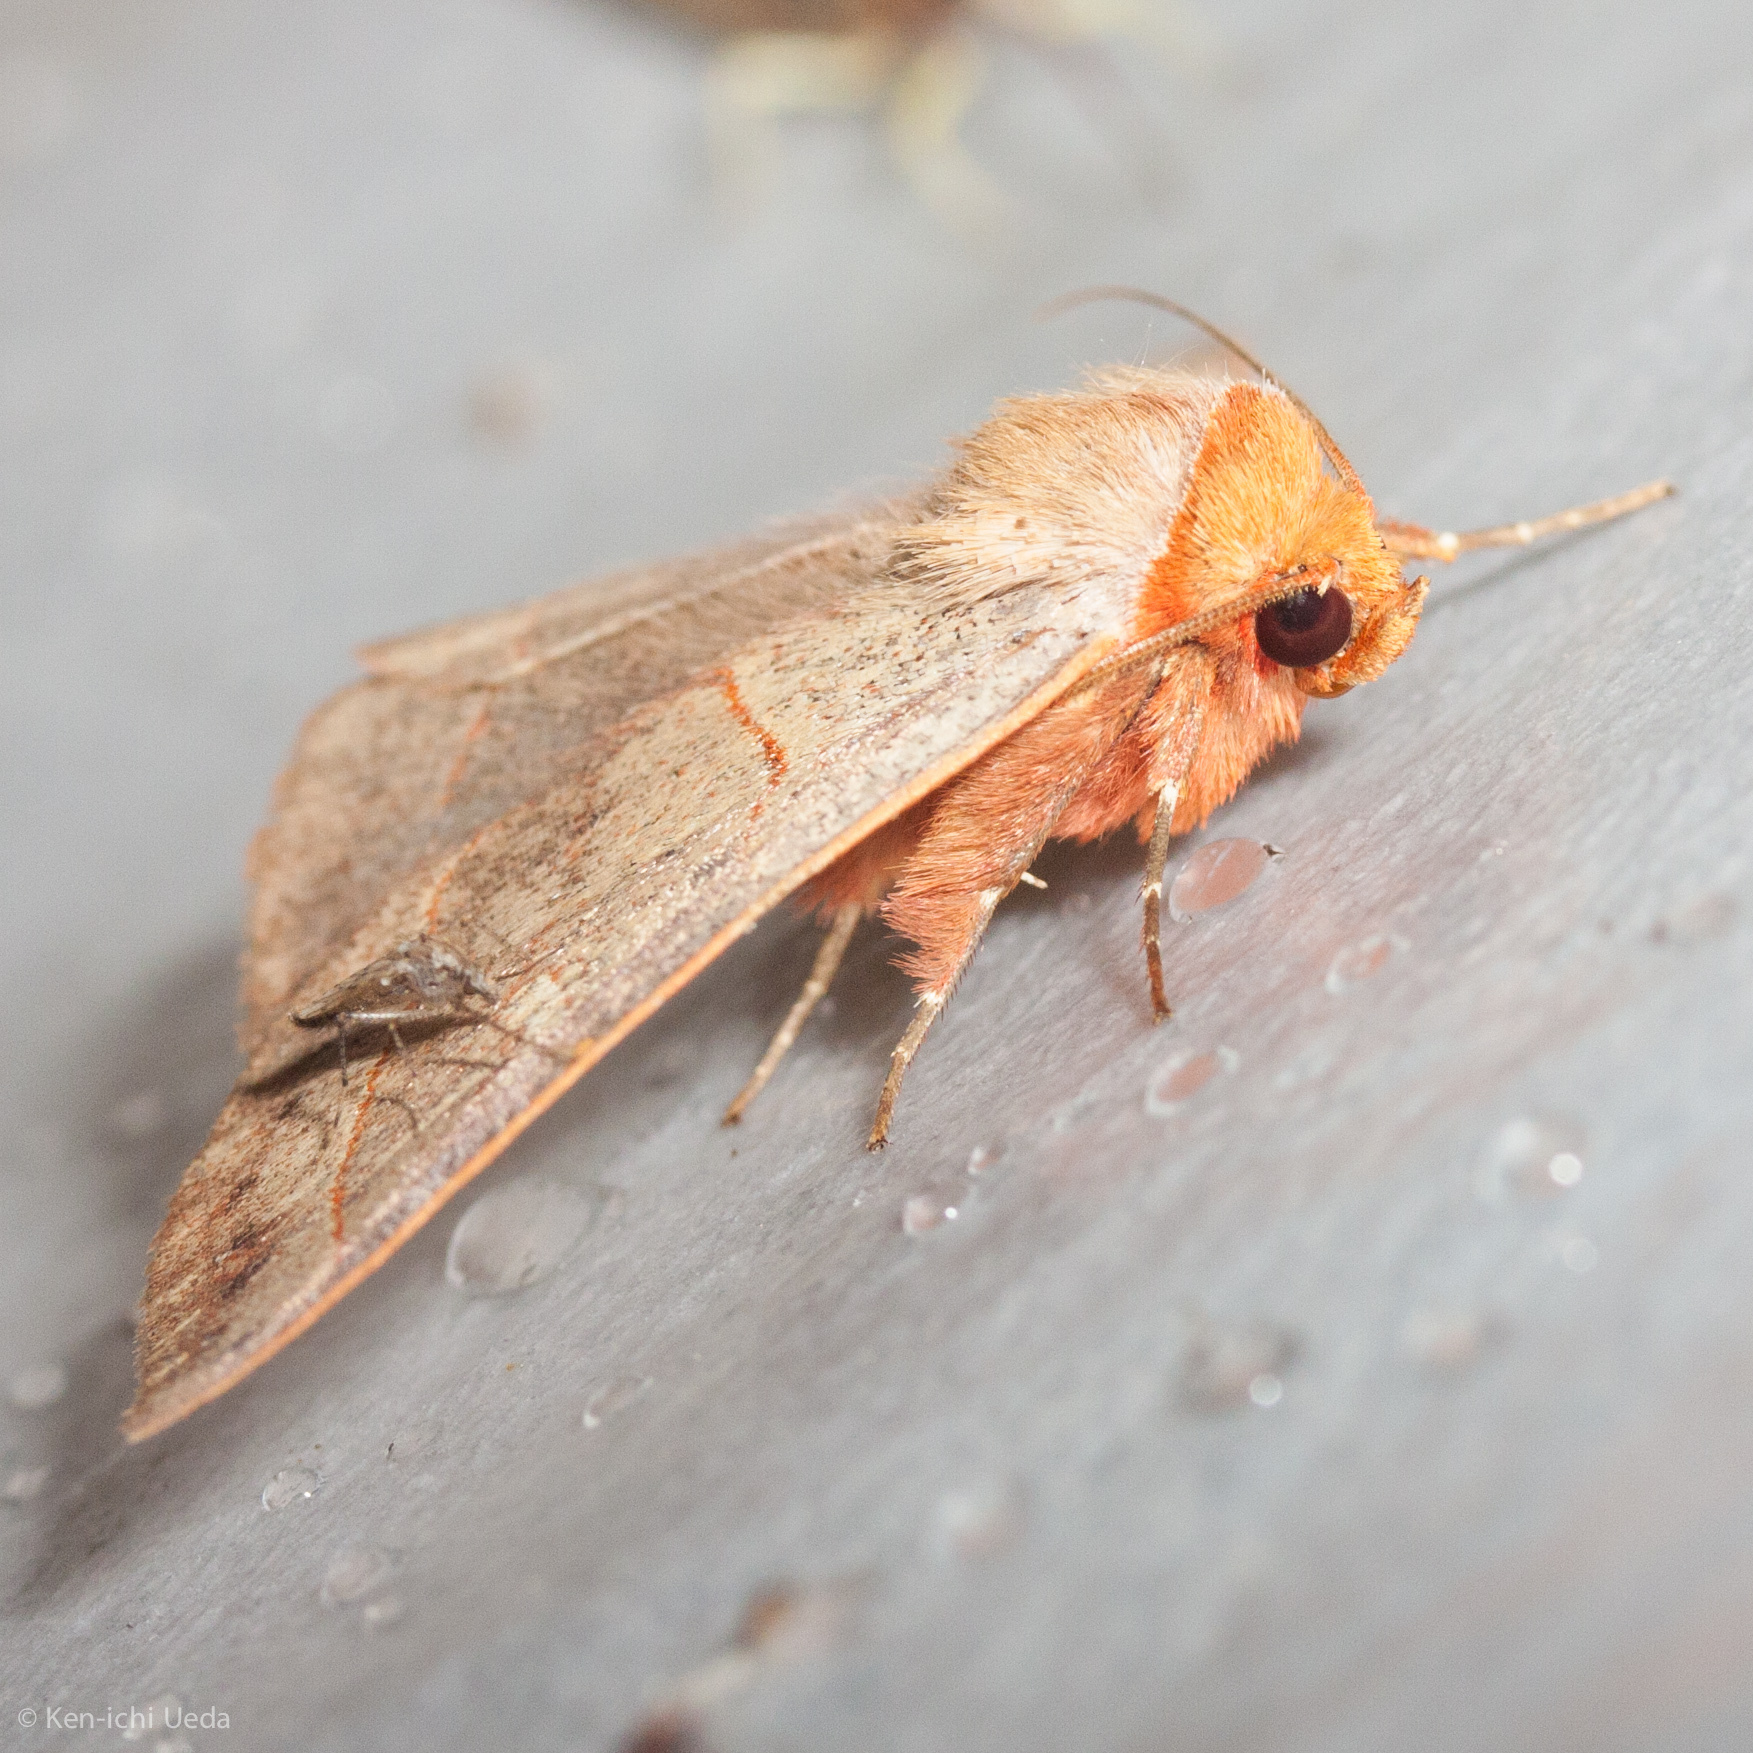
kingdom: Animalia
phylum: Arthropoda
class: Insecta
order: Lepidoptera
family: Erebidae
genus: Panopoda
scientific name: Panopoda rufimargo
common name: Red-lined panopoda moth
